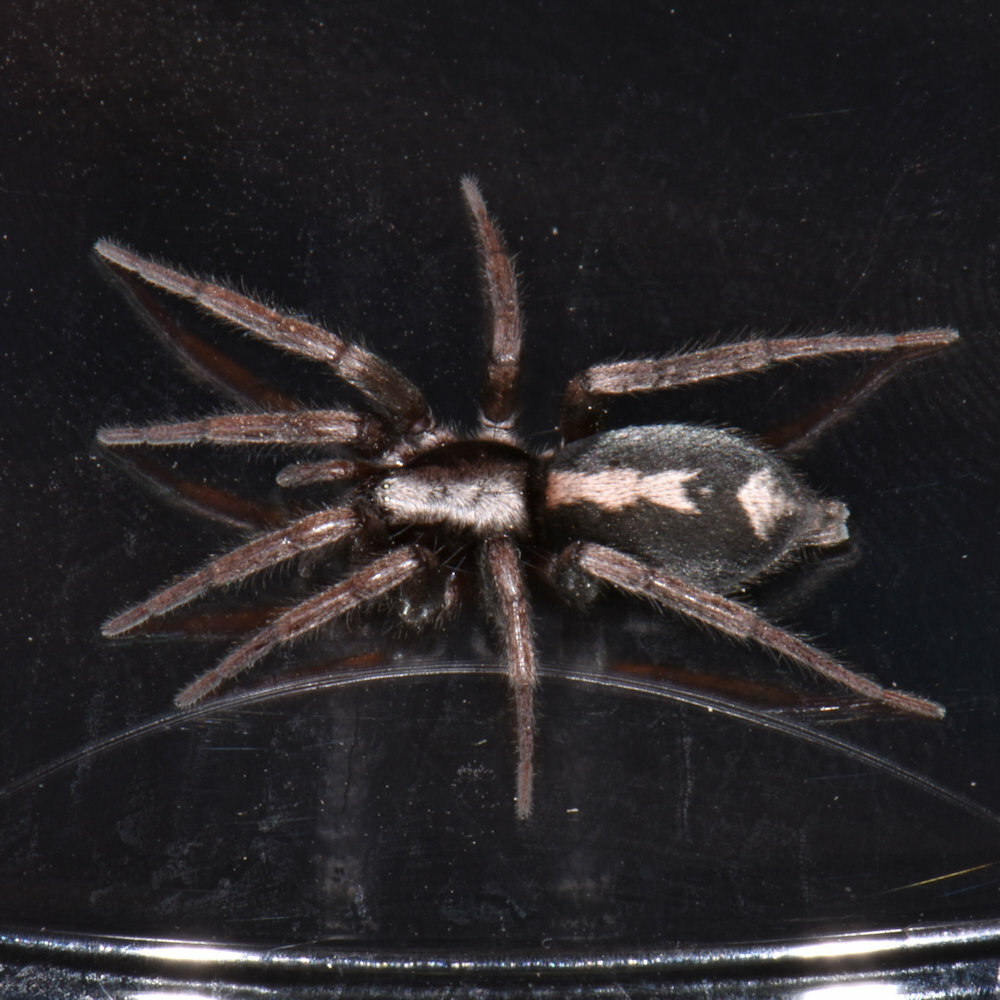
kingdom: Animalia
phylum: Arthropoda
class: Arachnida
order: Araneae
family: Gnaphosidae
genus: Herpyllus
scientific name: Herpyllus ecclesiasticus
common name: Eastern parson spider
